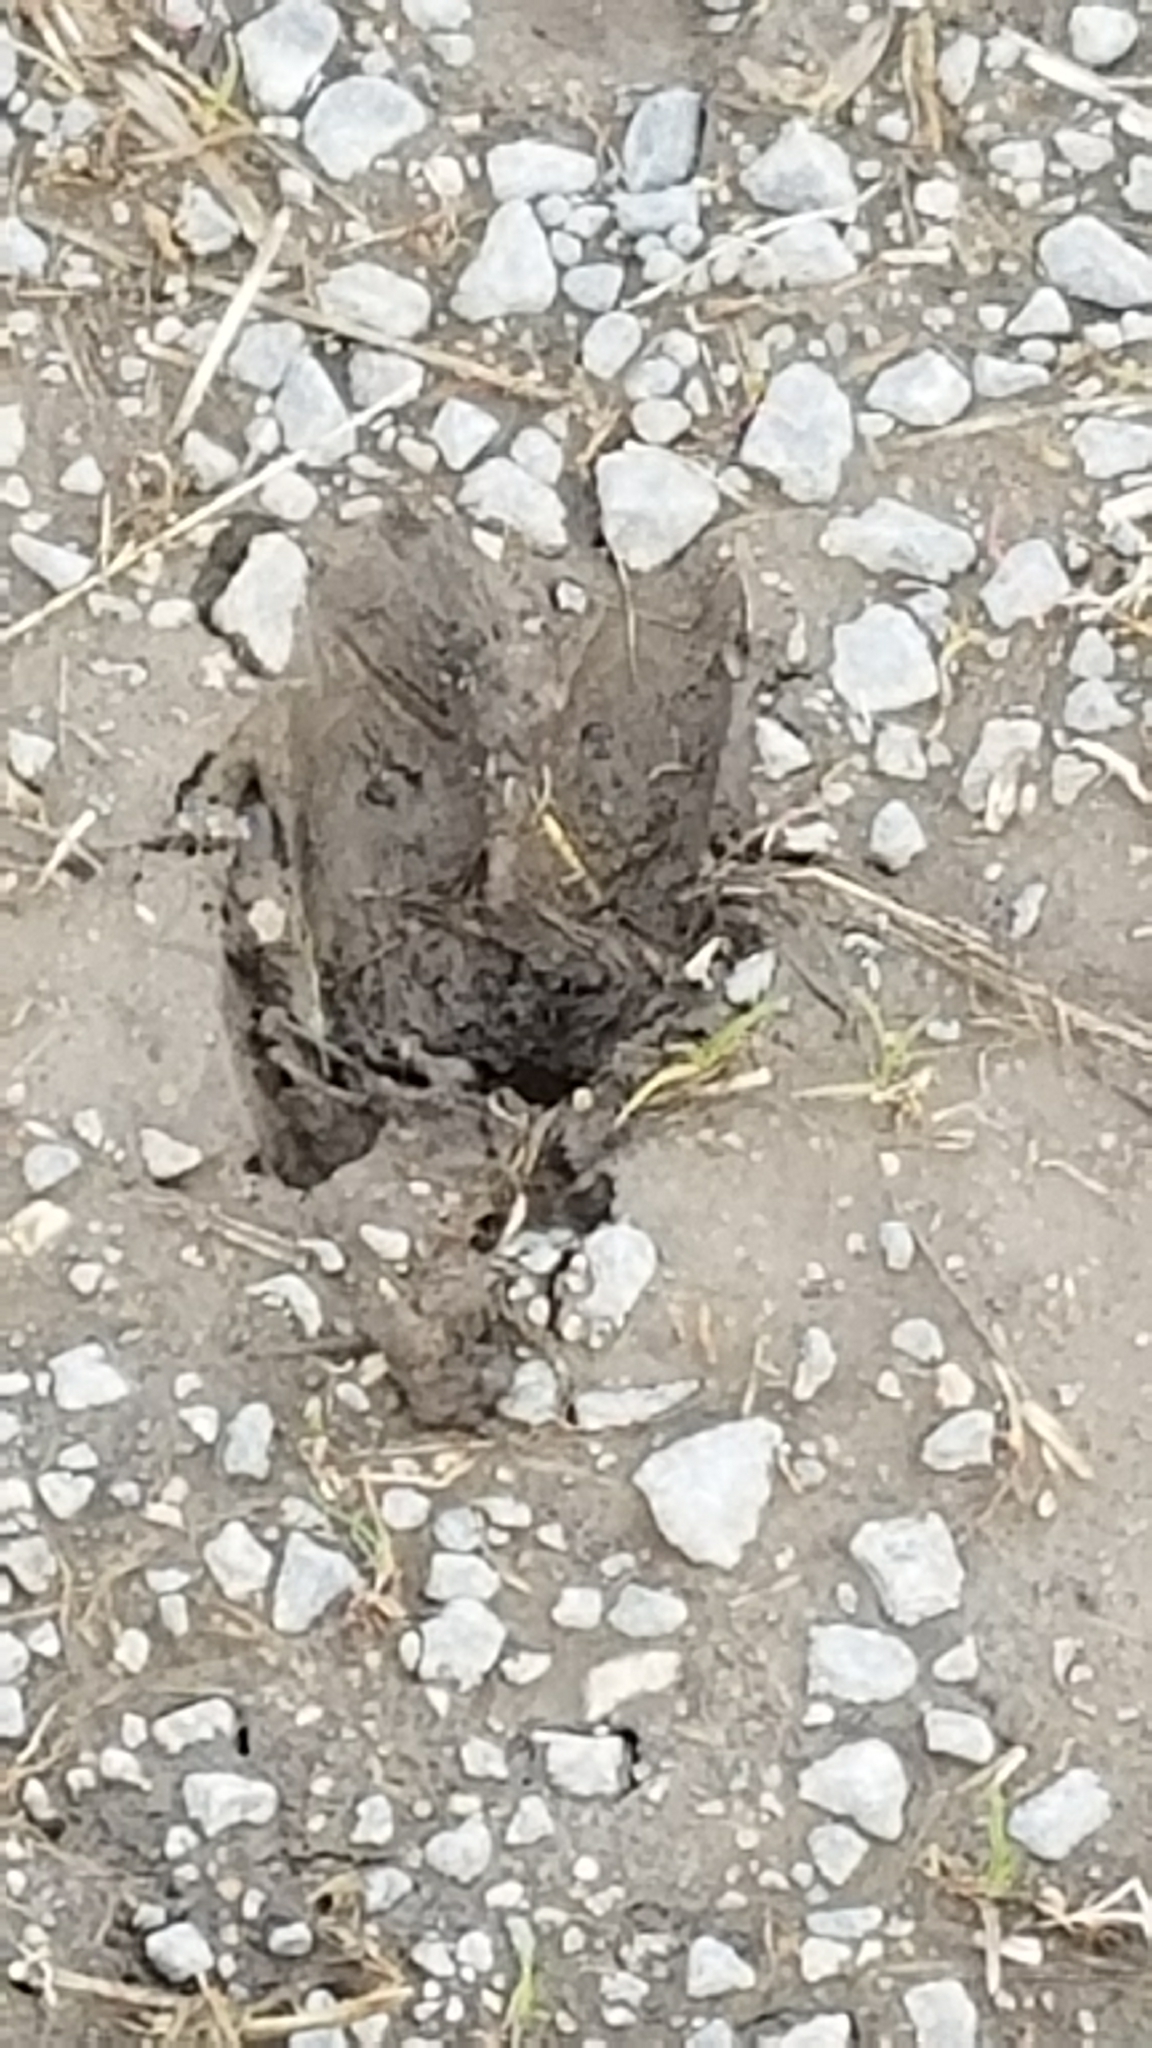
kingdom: Animalia
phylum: Chordata
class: Mammalia
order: Artiodactyla
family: Cervidae
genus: Odocoileus
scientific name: Odocoileus virginianus
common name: White-tailed deer
